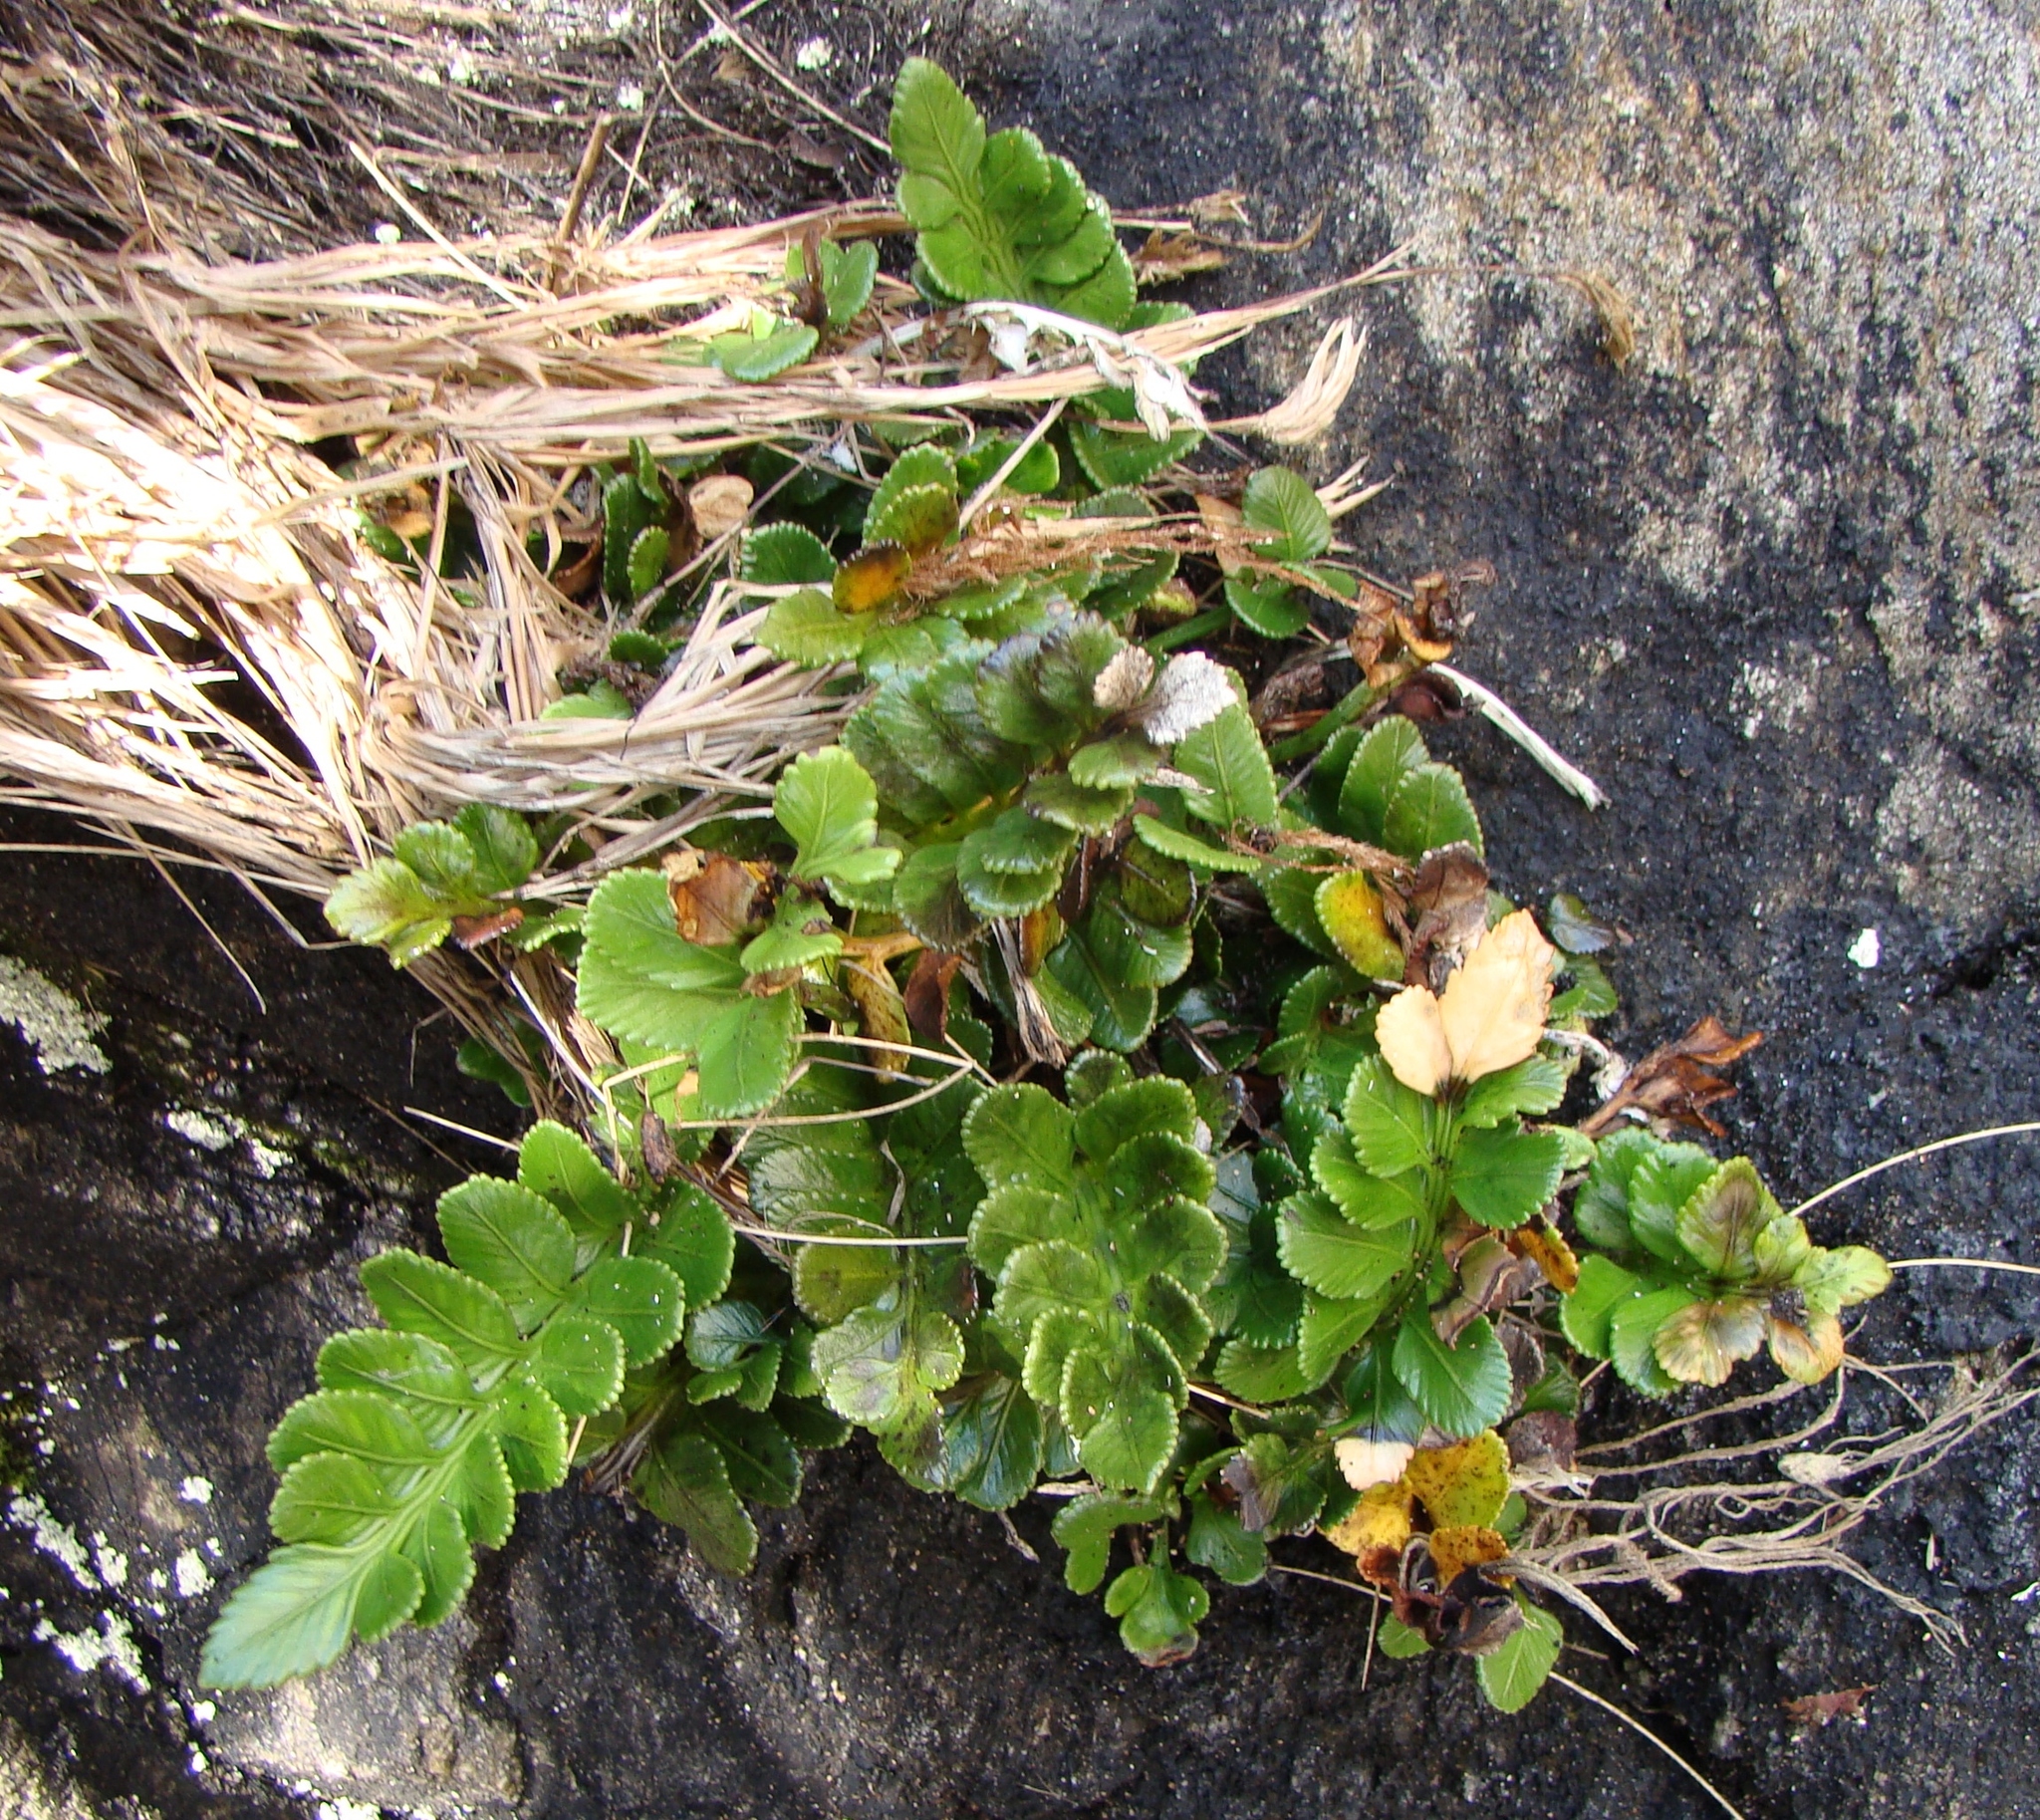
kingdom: Plantae
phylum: Tracheophyta
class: Polypodiopsida
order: Polypodiales
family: Aspleniaceae
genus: Asplenium
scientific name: Asplenium obtusatum
